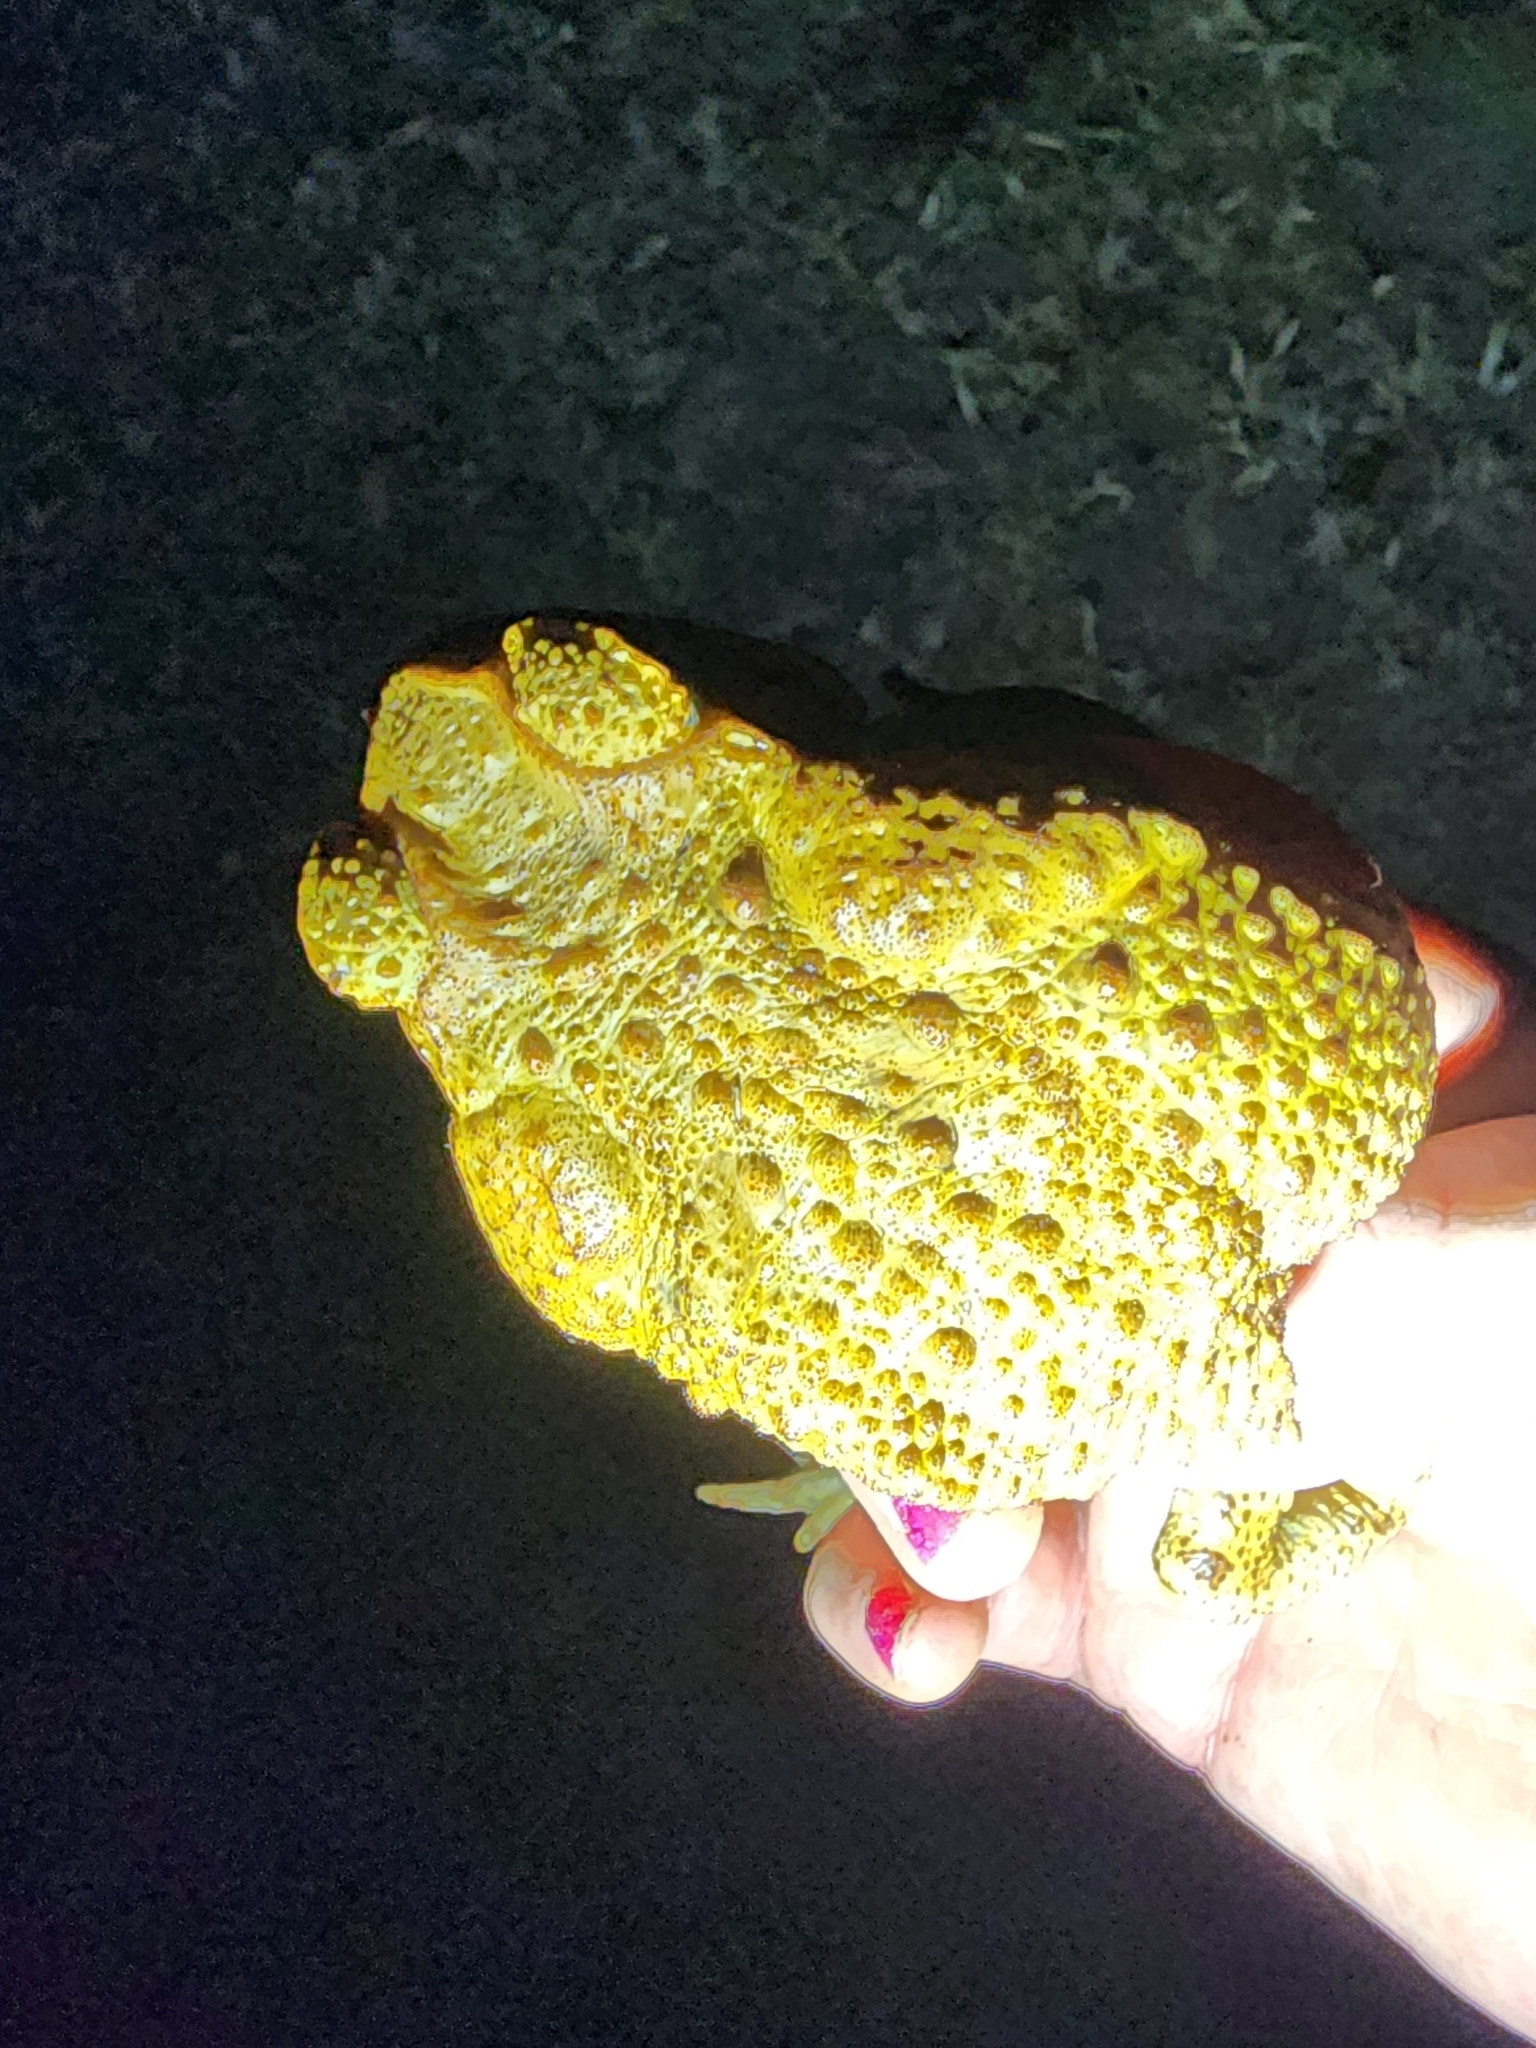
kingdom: Animalia
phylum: Chordata
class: Amphibia
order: Anura
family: Bufonidae
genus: Rhinella
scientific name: Rhinella marina
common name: Cane toad
